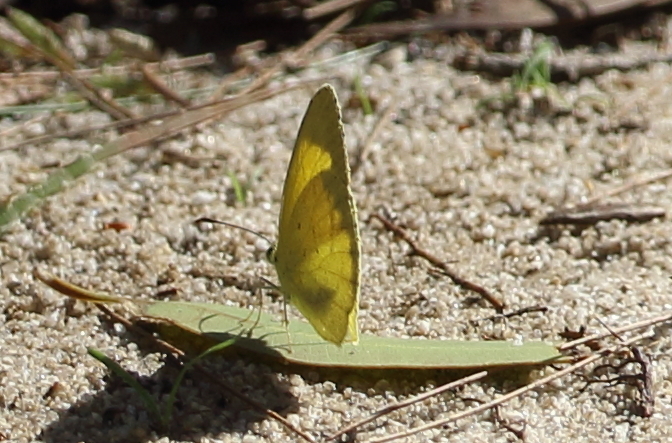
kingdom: Animalia
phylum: Arthropoda
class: Insecta
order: Lepidoptera
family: Pieridae
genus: Eurema
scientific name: Eurema brigitta
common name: Small grass yellow
